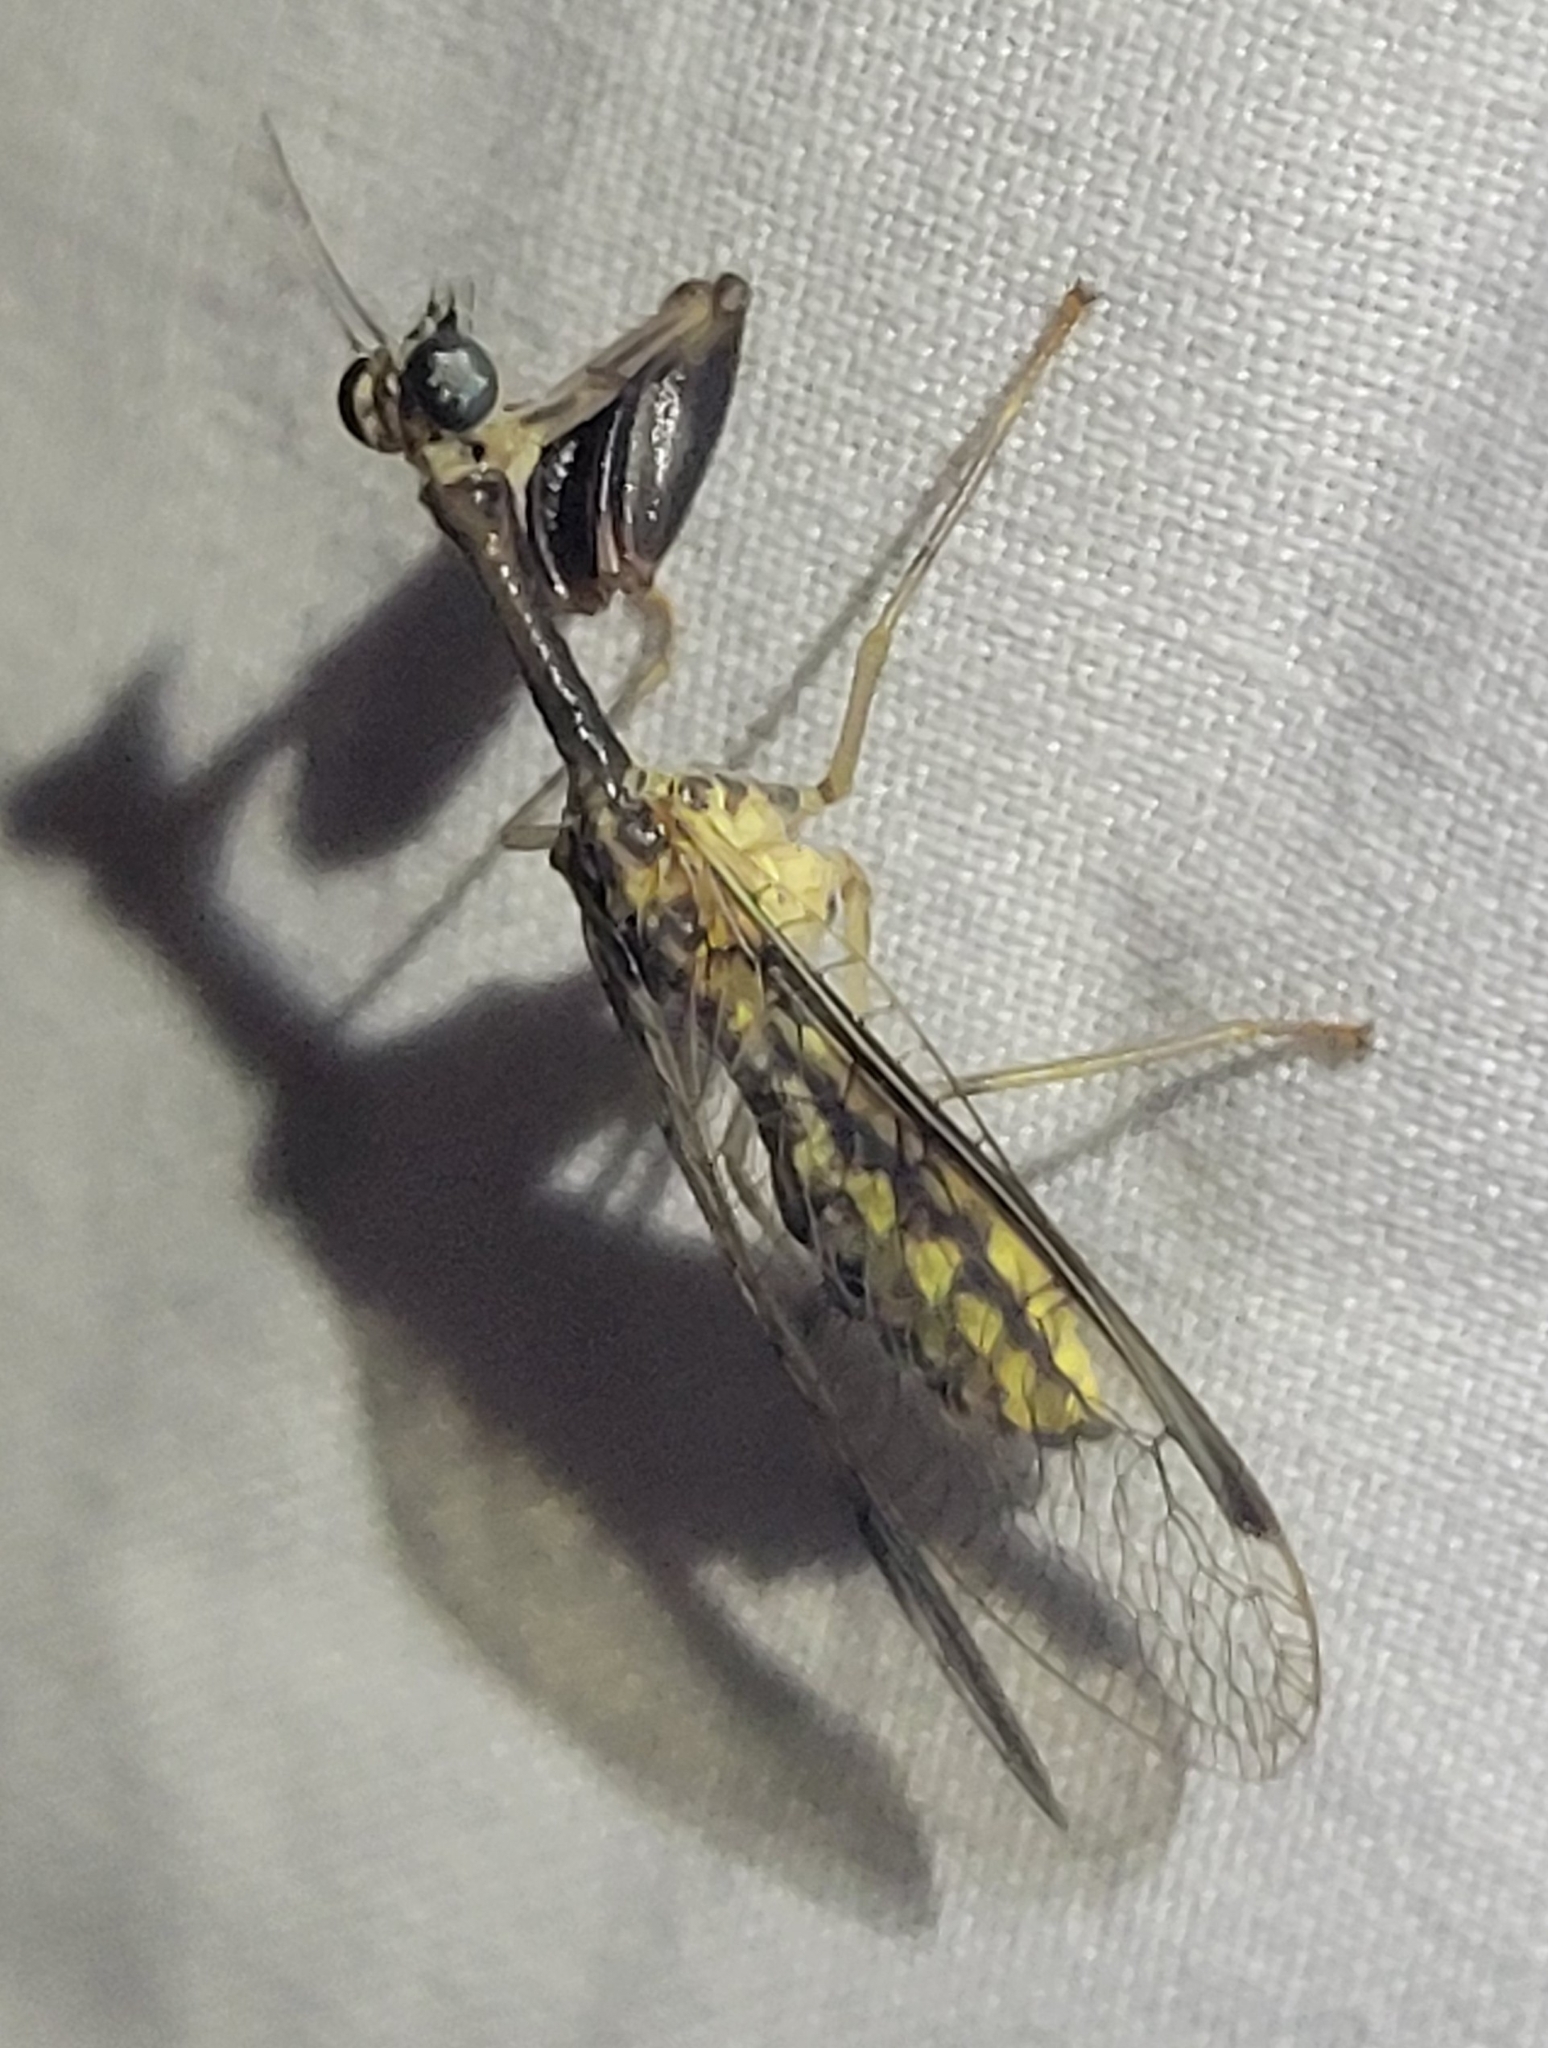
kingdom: Animalia
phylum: Arthropoda
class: Insecta
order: Neuroptera
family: Mantispidae
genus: Dicromantispa
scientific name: Dicromantispa sayi
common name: Say's mantidfly
